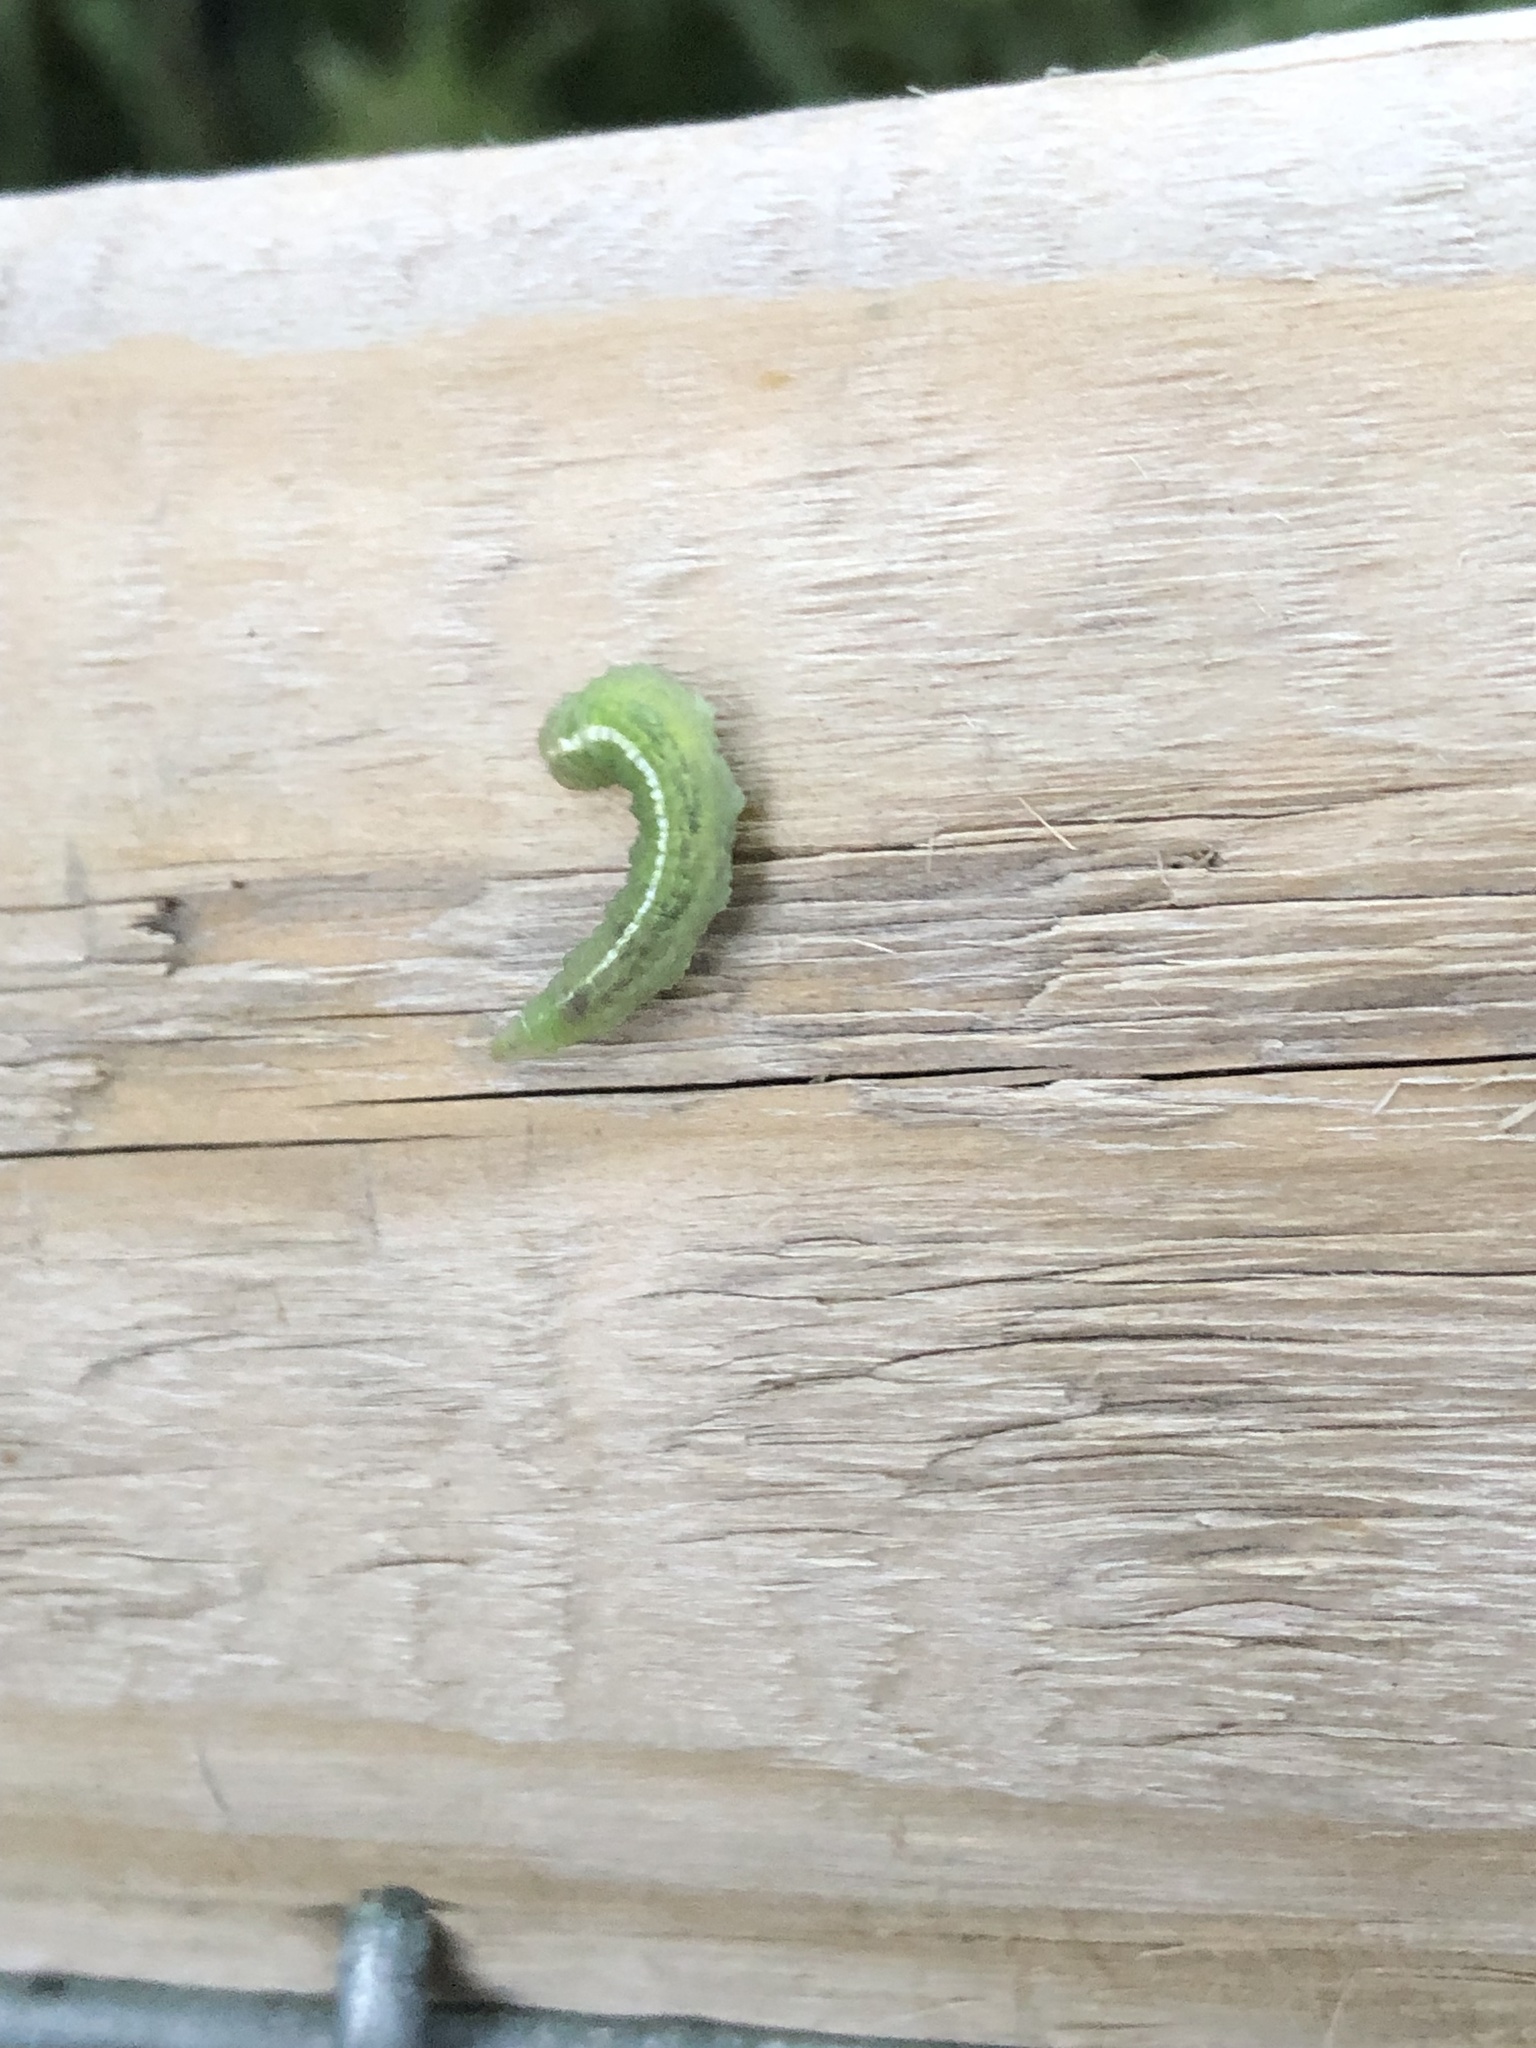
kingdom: Animalia
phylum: Arthropoda
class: Insecta
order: Diptera
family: Syrphidae
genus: Scaeva
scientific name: Scaeva
